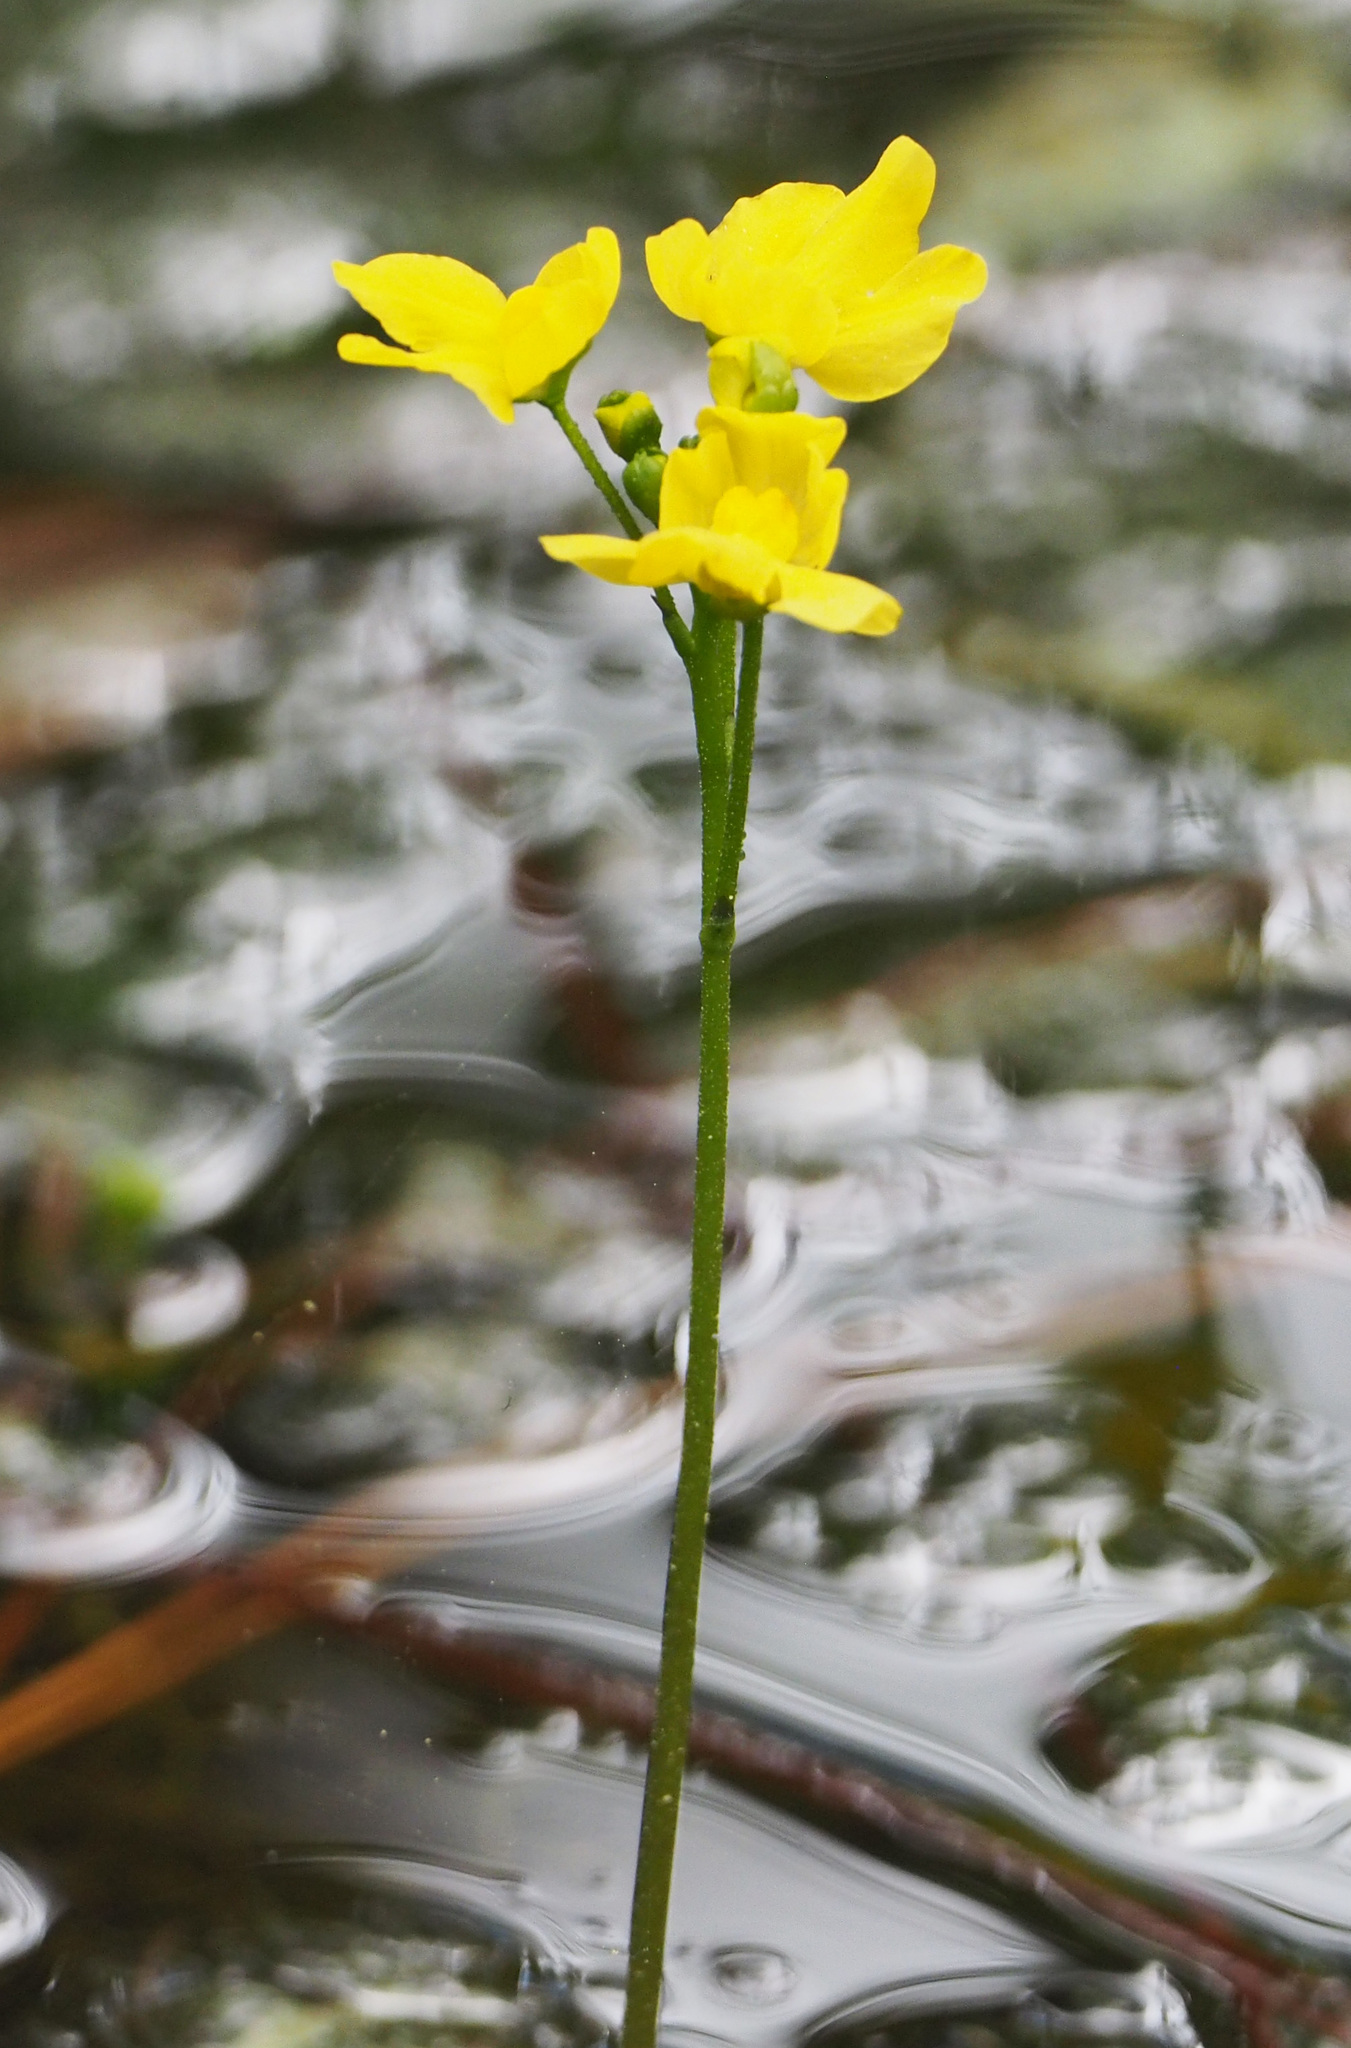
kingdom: Plantae
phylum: Tracheophyta
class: Magnoliopsida
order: Lamiales
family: Lentibulariaceae
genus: Utricularia
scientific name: Utricularia inflata
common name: Floating bladderwort
